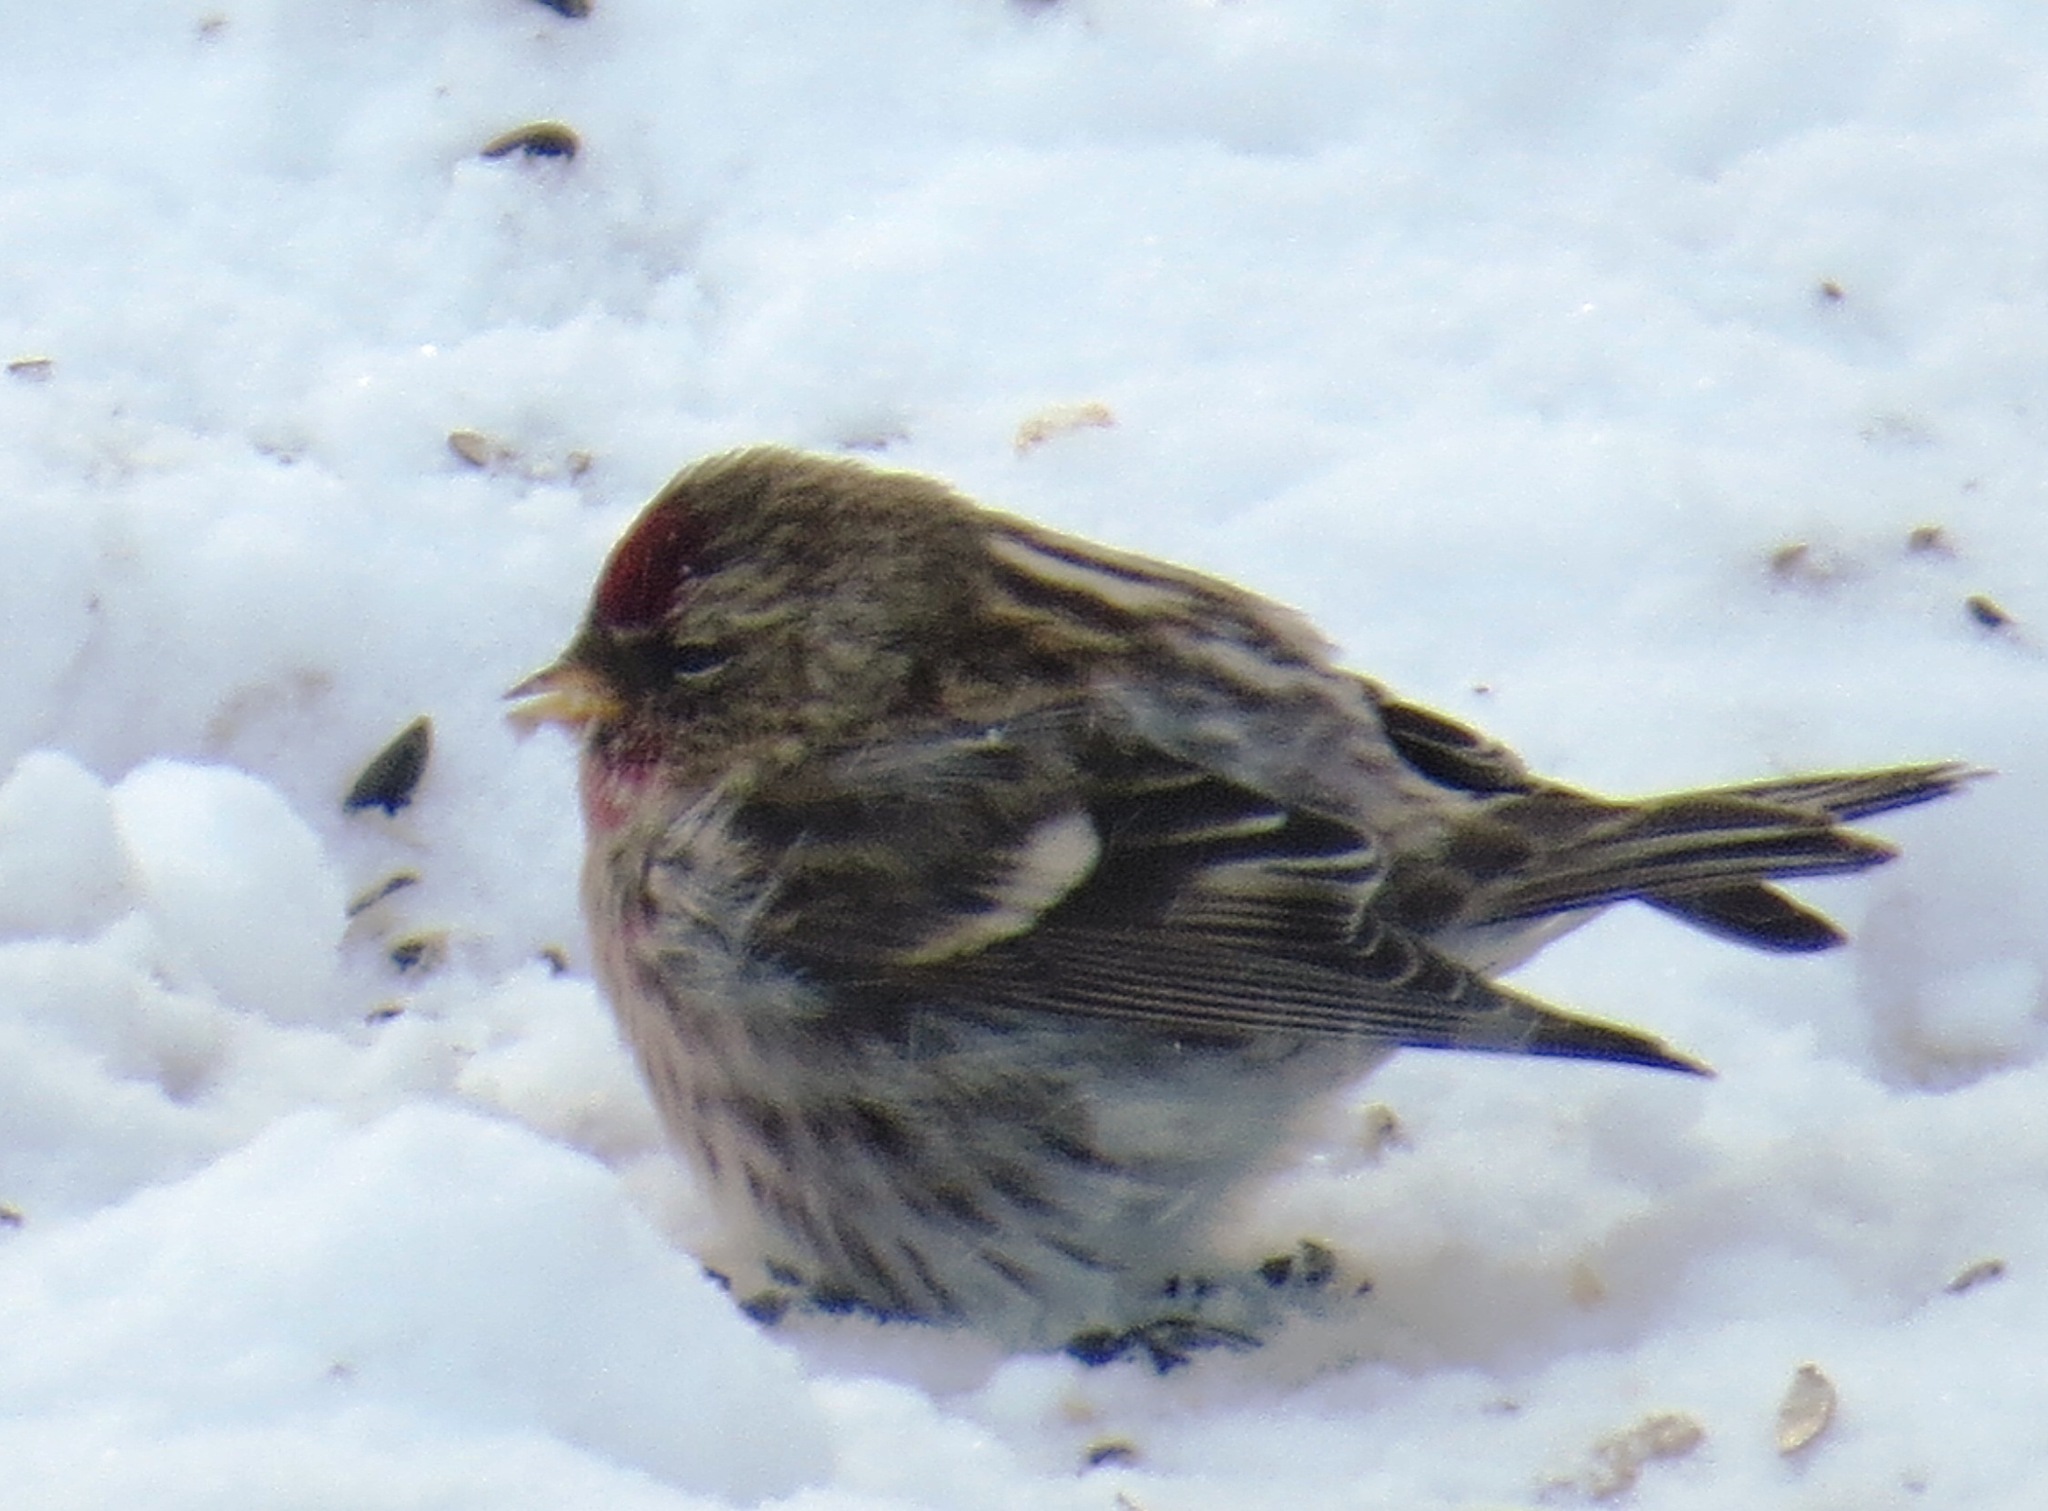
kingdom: Animalia
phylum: Chordata
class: Aves
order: Passeriformes
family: Fringillidae
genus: Acanthis
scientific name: Acanthis flammea
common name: Common redpoll
